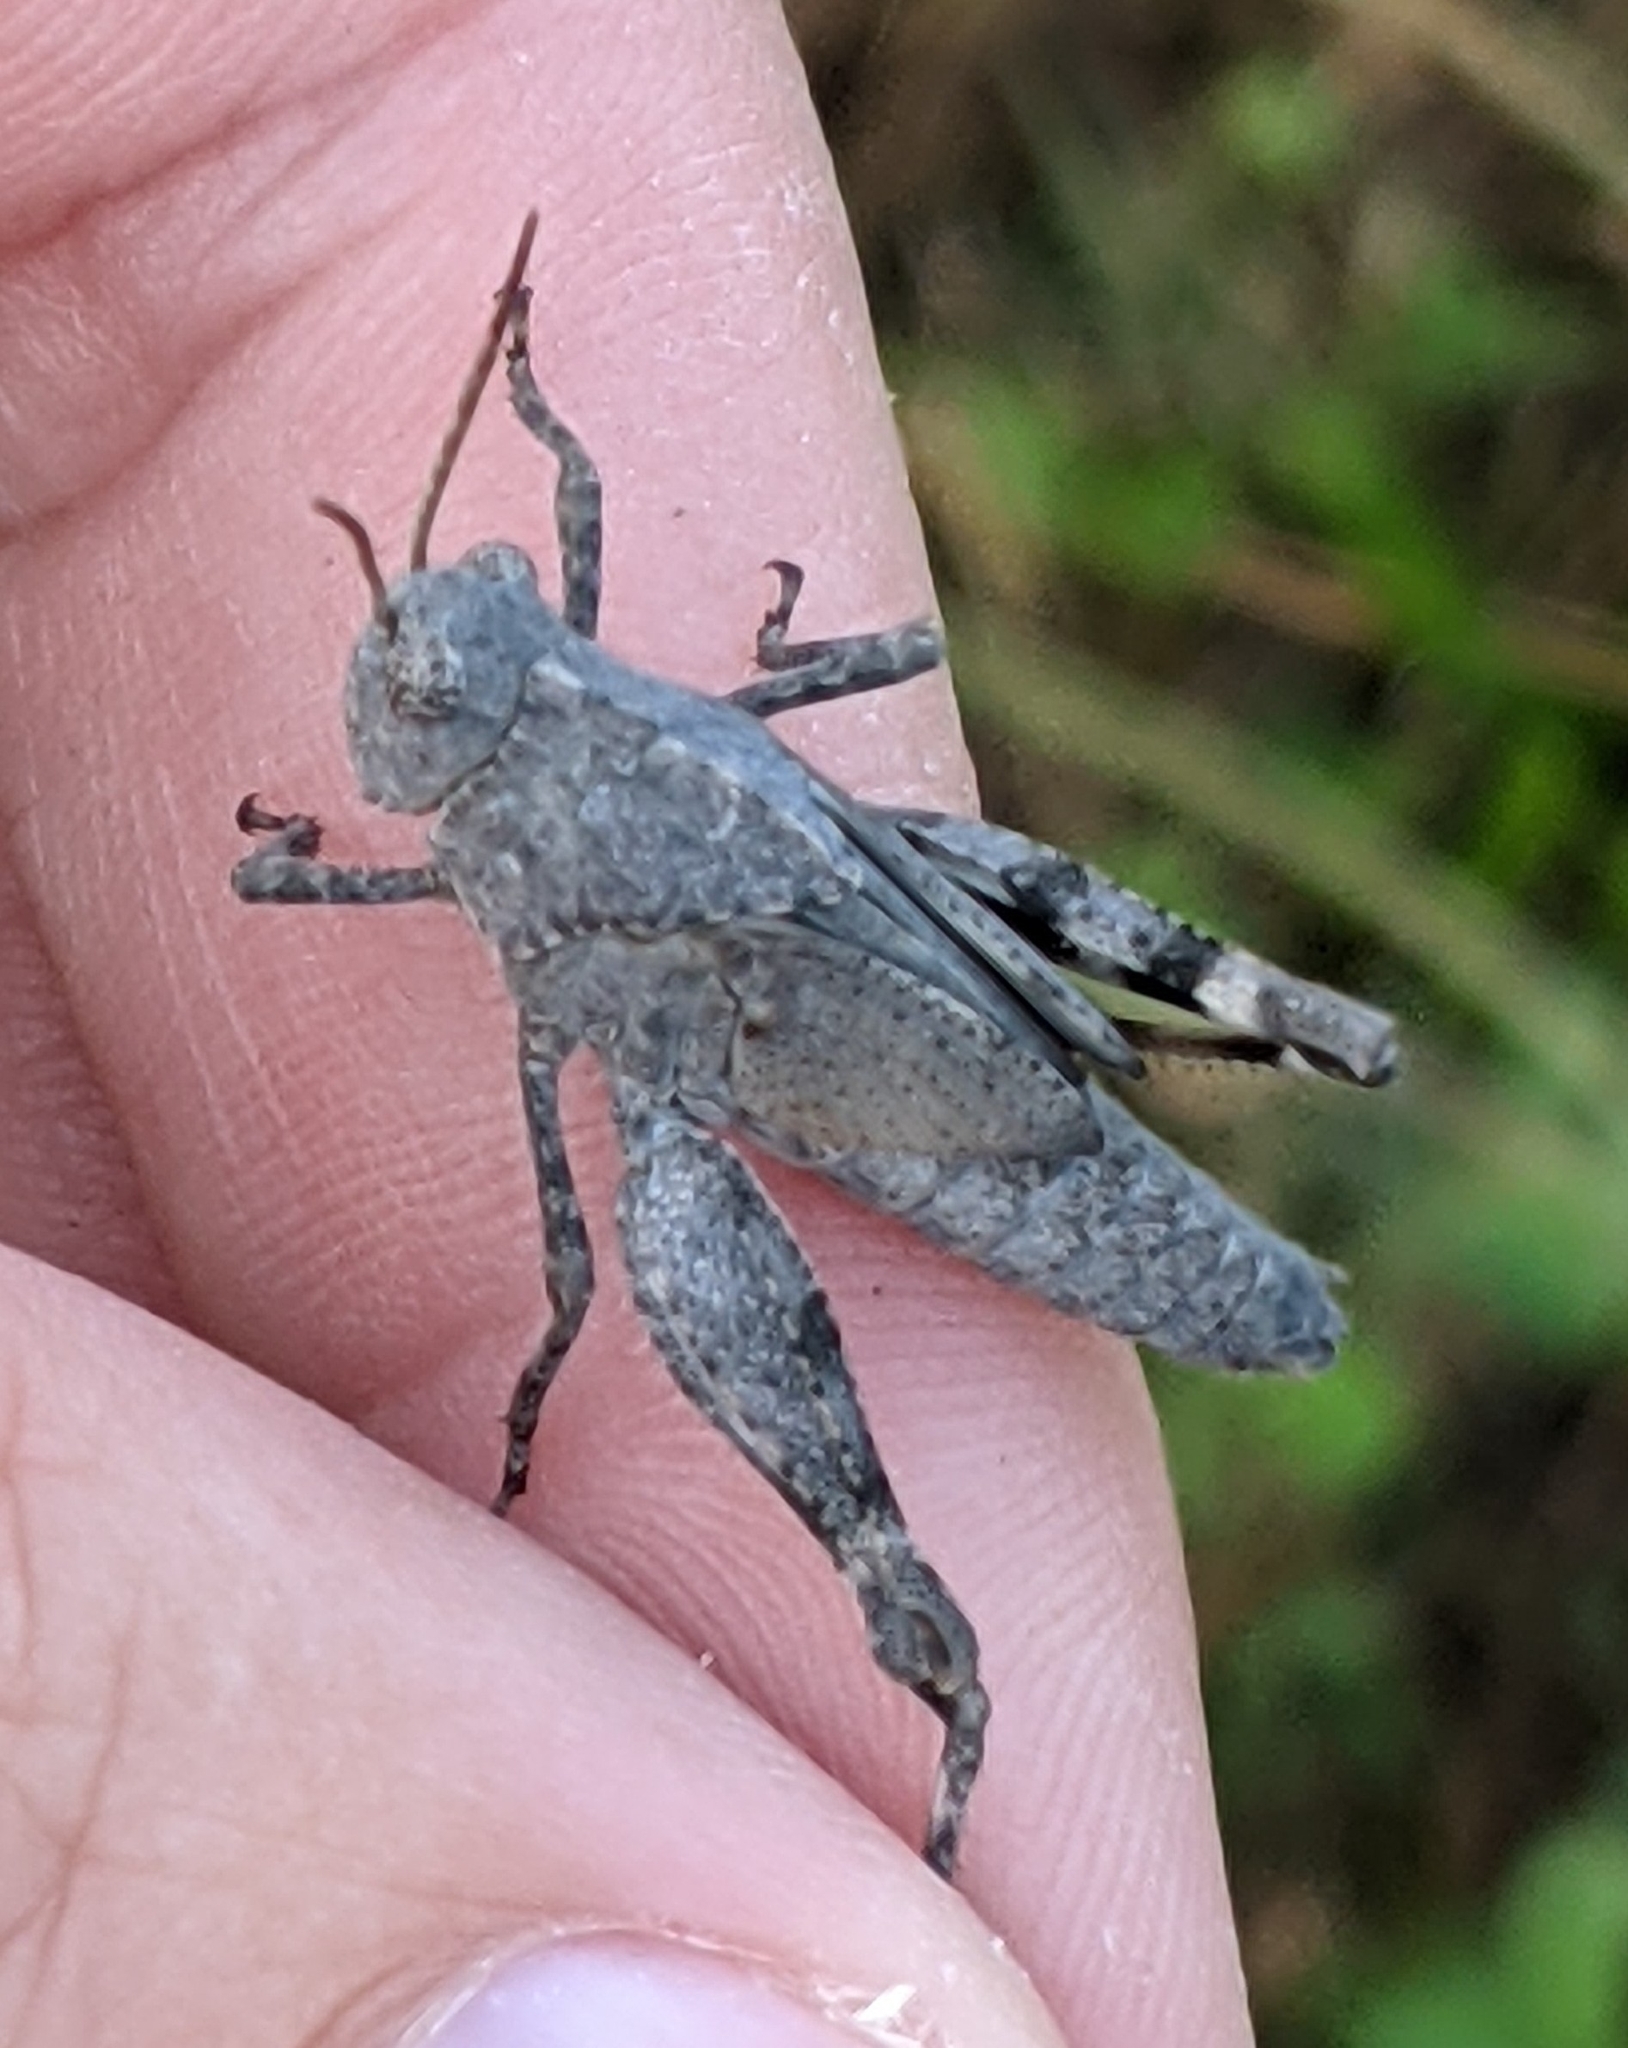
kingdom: Animalia
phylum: Arthropoda
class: Insecta
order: Orthoptera
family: Acrididae
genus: Dissosteira
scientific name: Dissosteira carolina
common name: Carolina grasshopper
